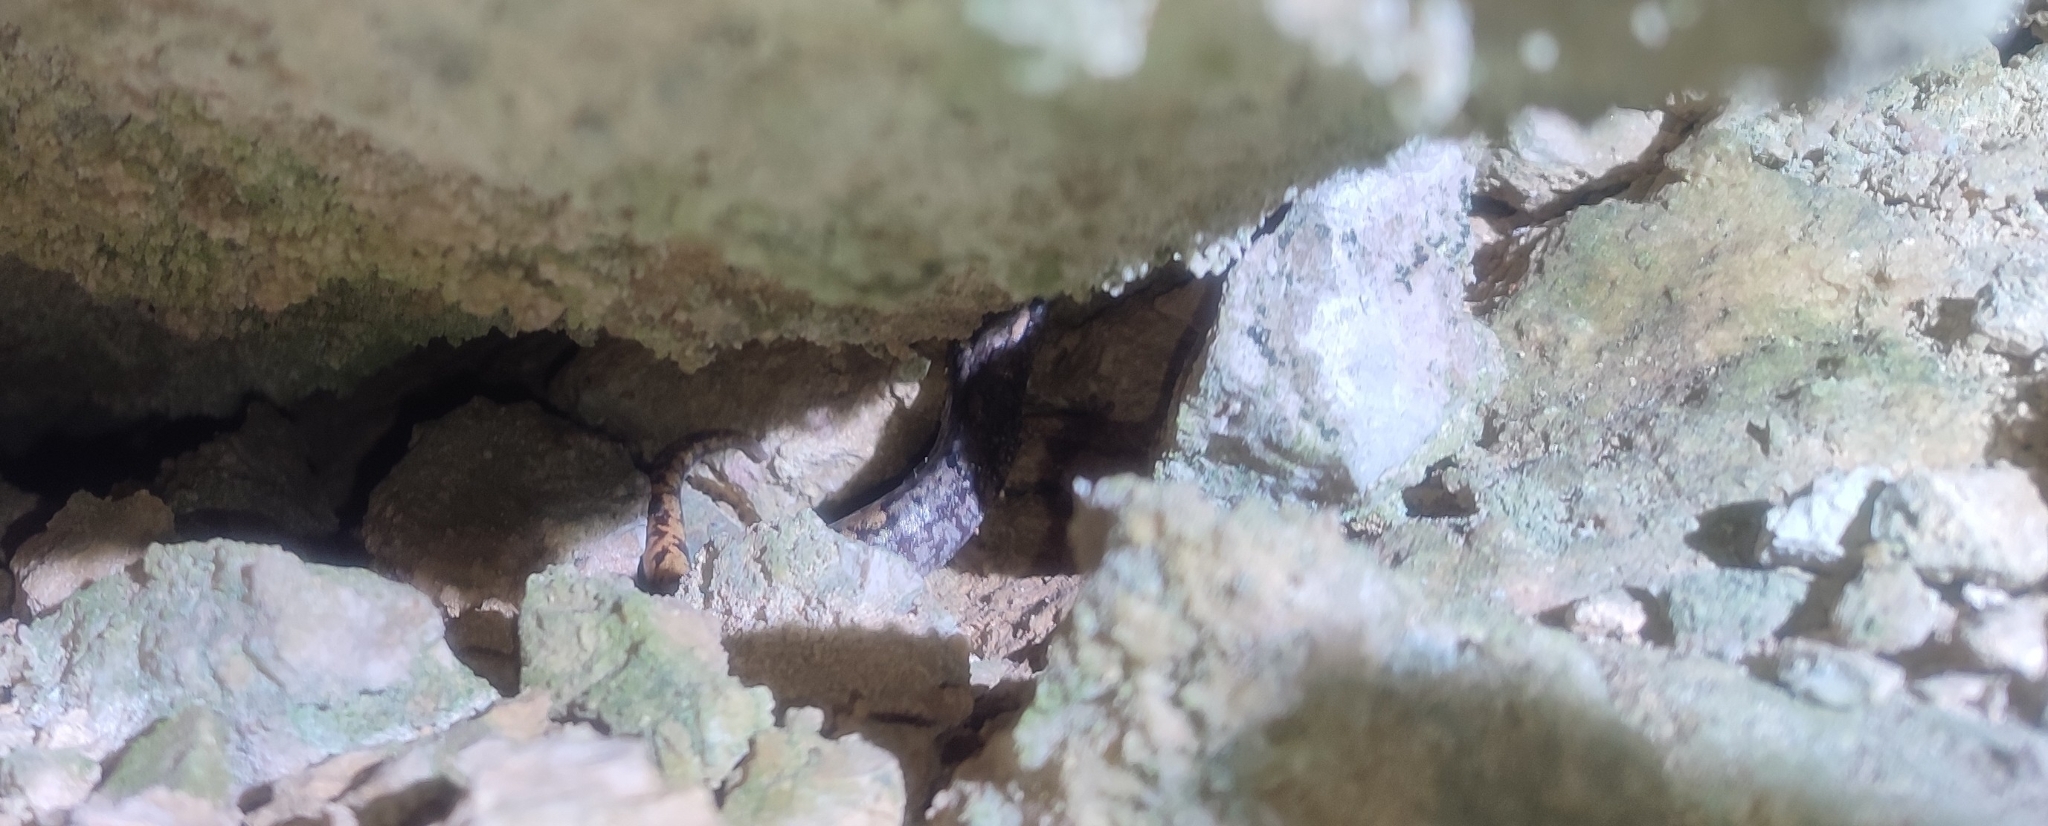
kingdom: Animalia
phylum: Chordata
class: Amphibia
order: Caudata
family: Plethodontidae
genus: Speleomantes
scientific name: Speleomantes strinatii
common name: French cave salamander
